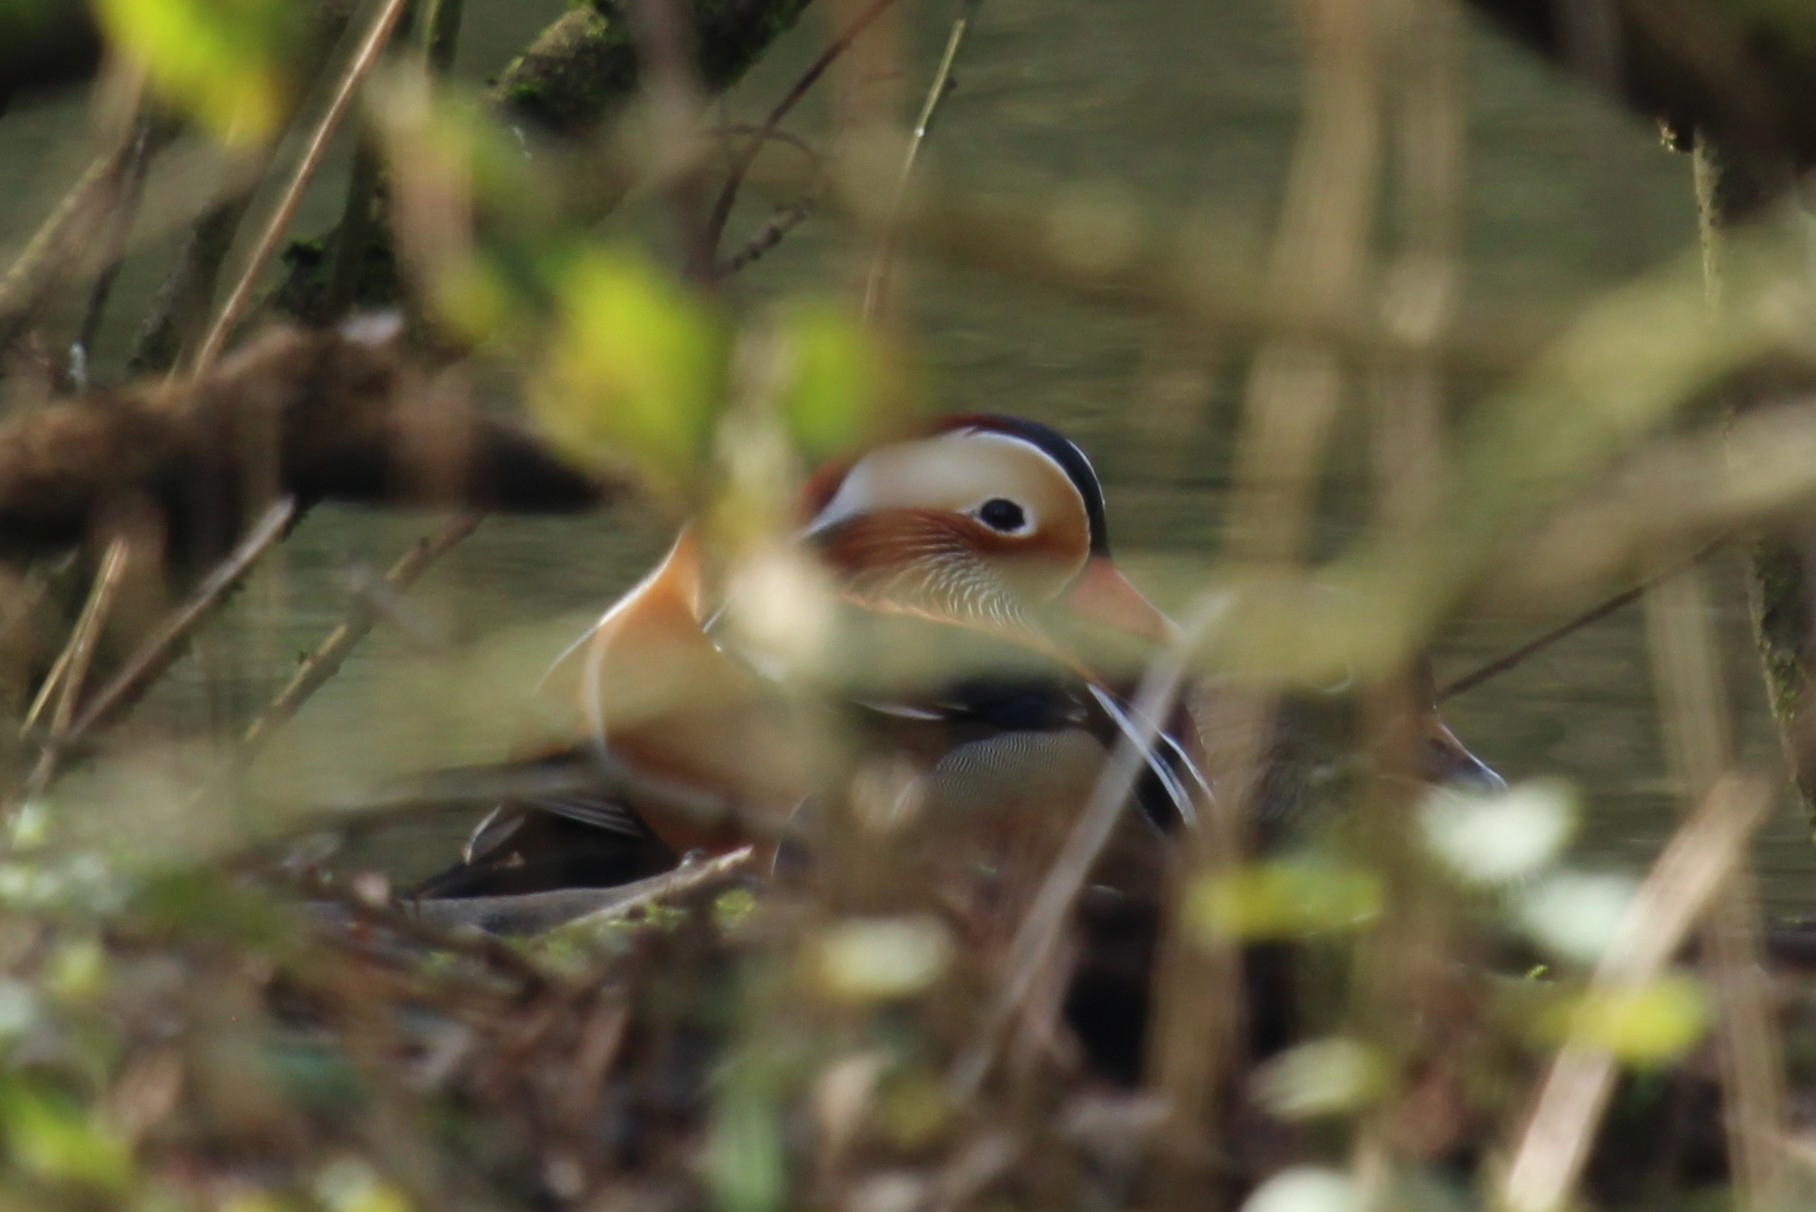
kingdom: Animalia
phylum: Chordata
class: Aves
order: Anseriformes
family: Anatidae
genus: Aix
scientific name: Aix galericulata
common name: Mandarin duck
